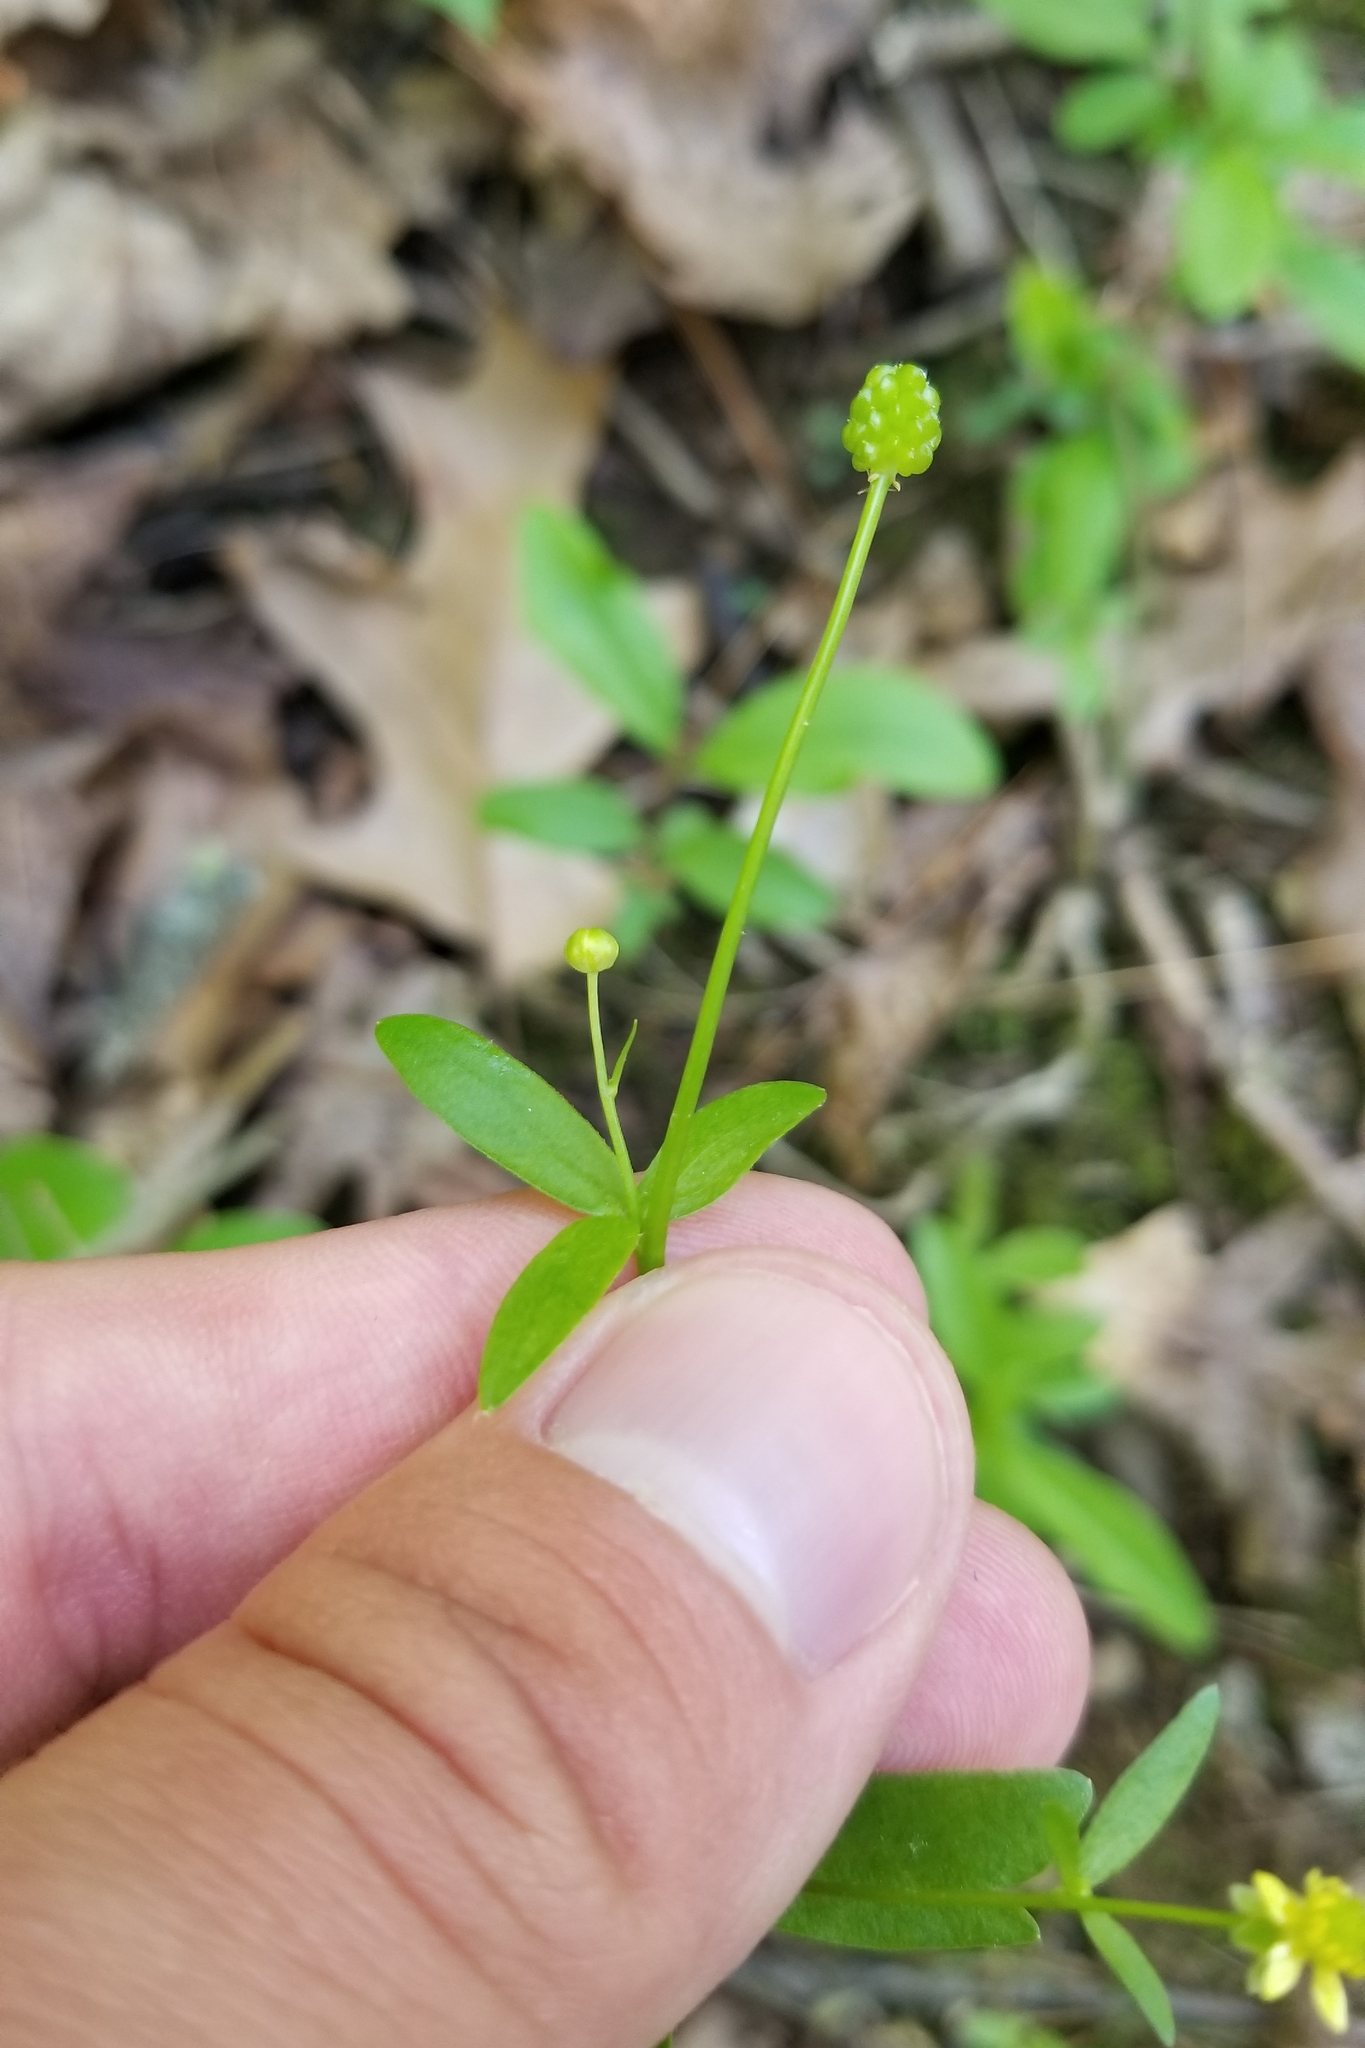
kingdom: Plantae
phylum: Tracheophyta
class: Magnoliopsida
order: Ranunculales
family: Ranunculaceae
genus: Ranunculus
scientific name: Ranunculus abortivus
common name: Early wood buttercup
